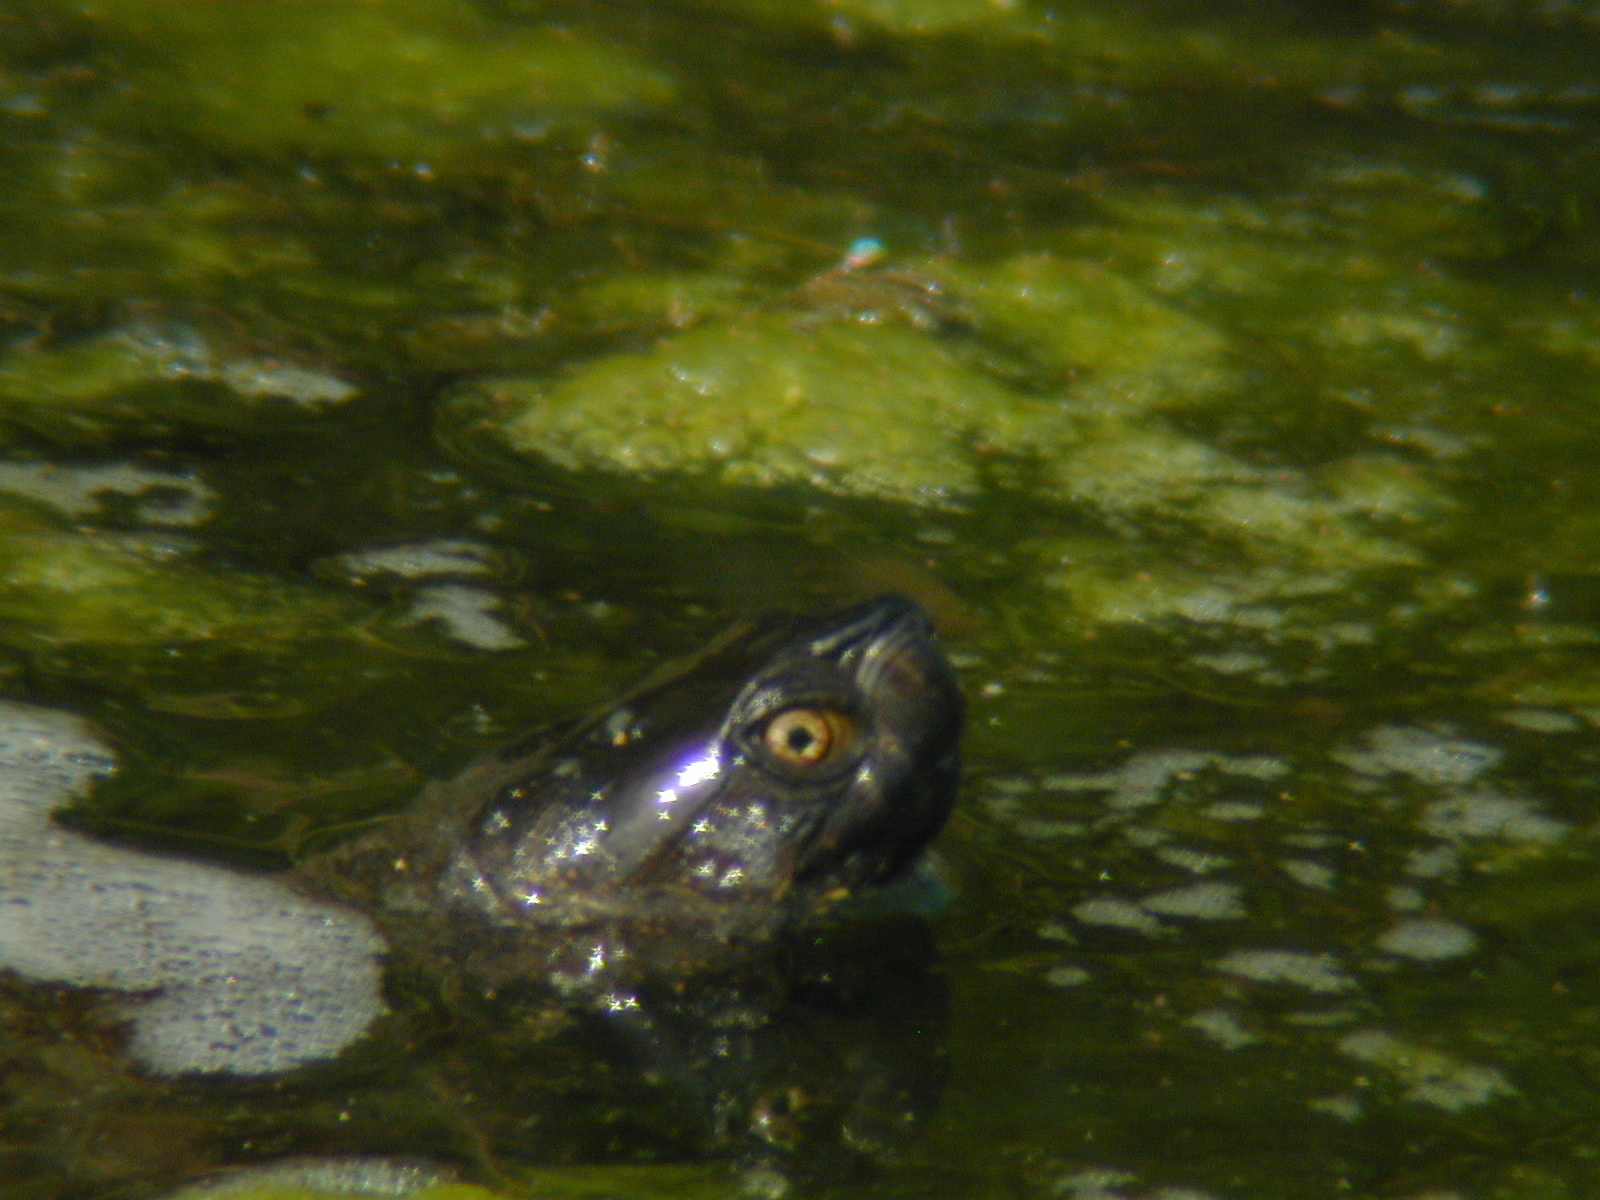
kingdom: Animalia
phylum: Chordata
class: Testudines
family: Emydidae
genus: Emys
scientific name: Emys orbicularis
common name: European pond turtle
